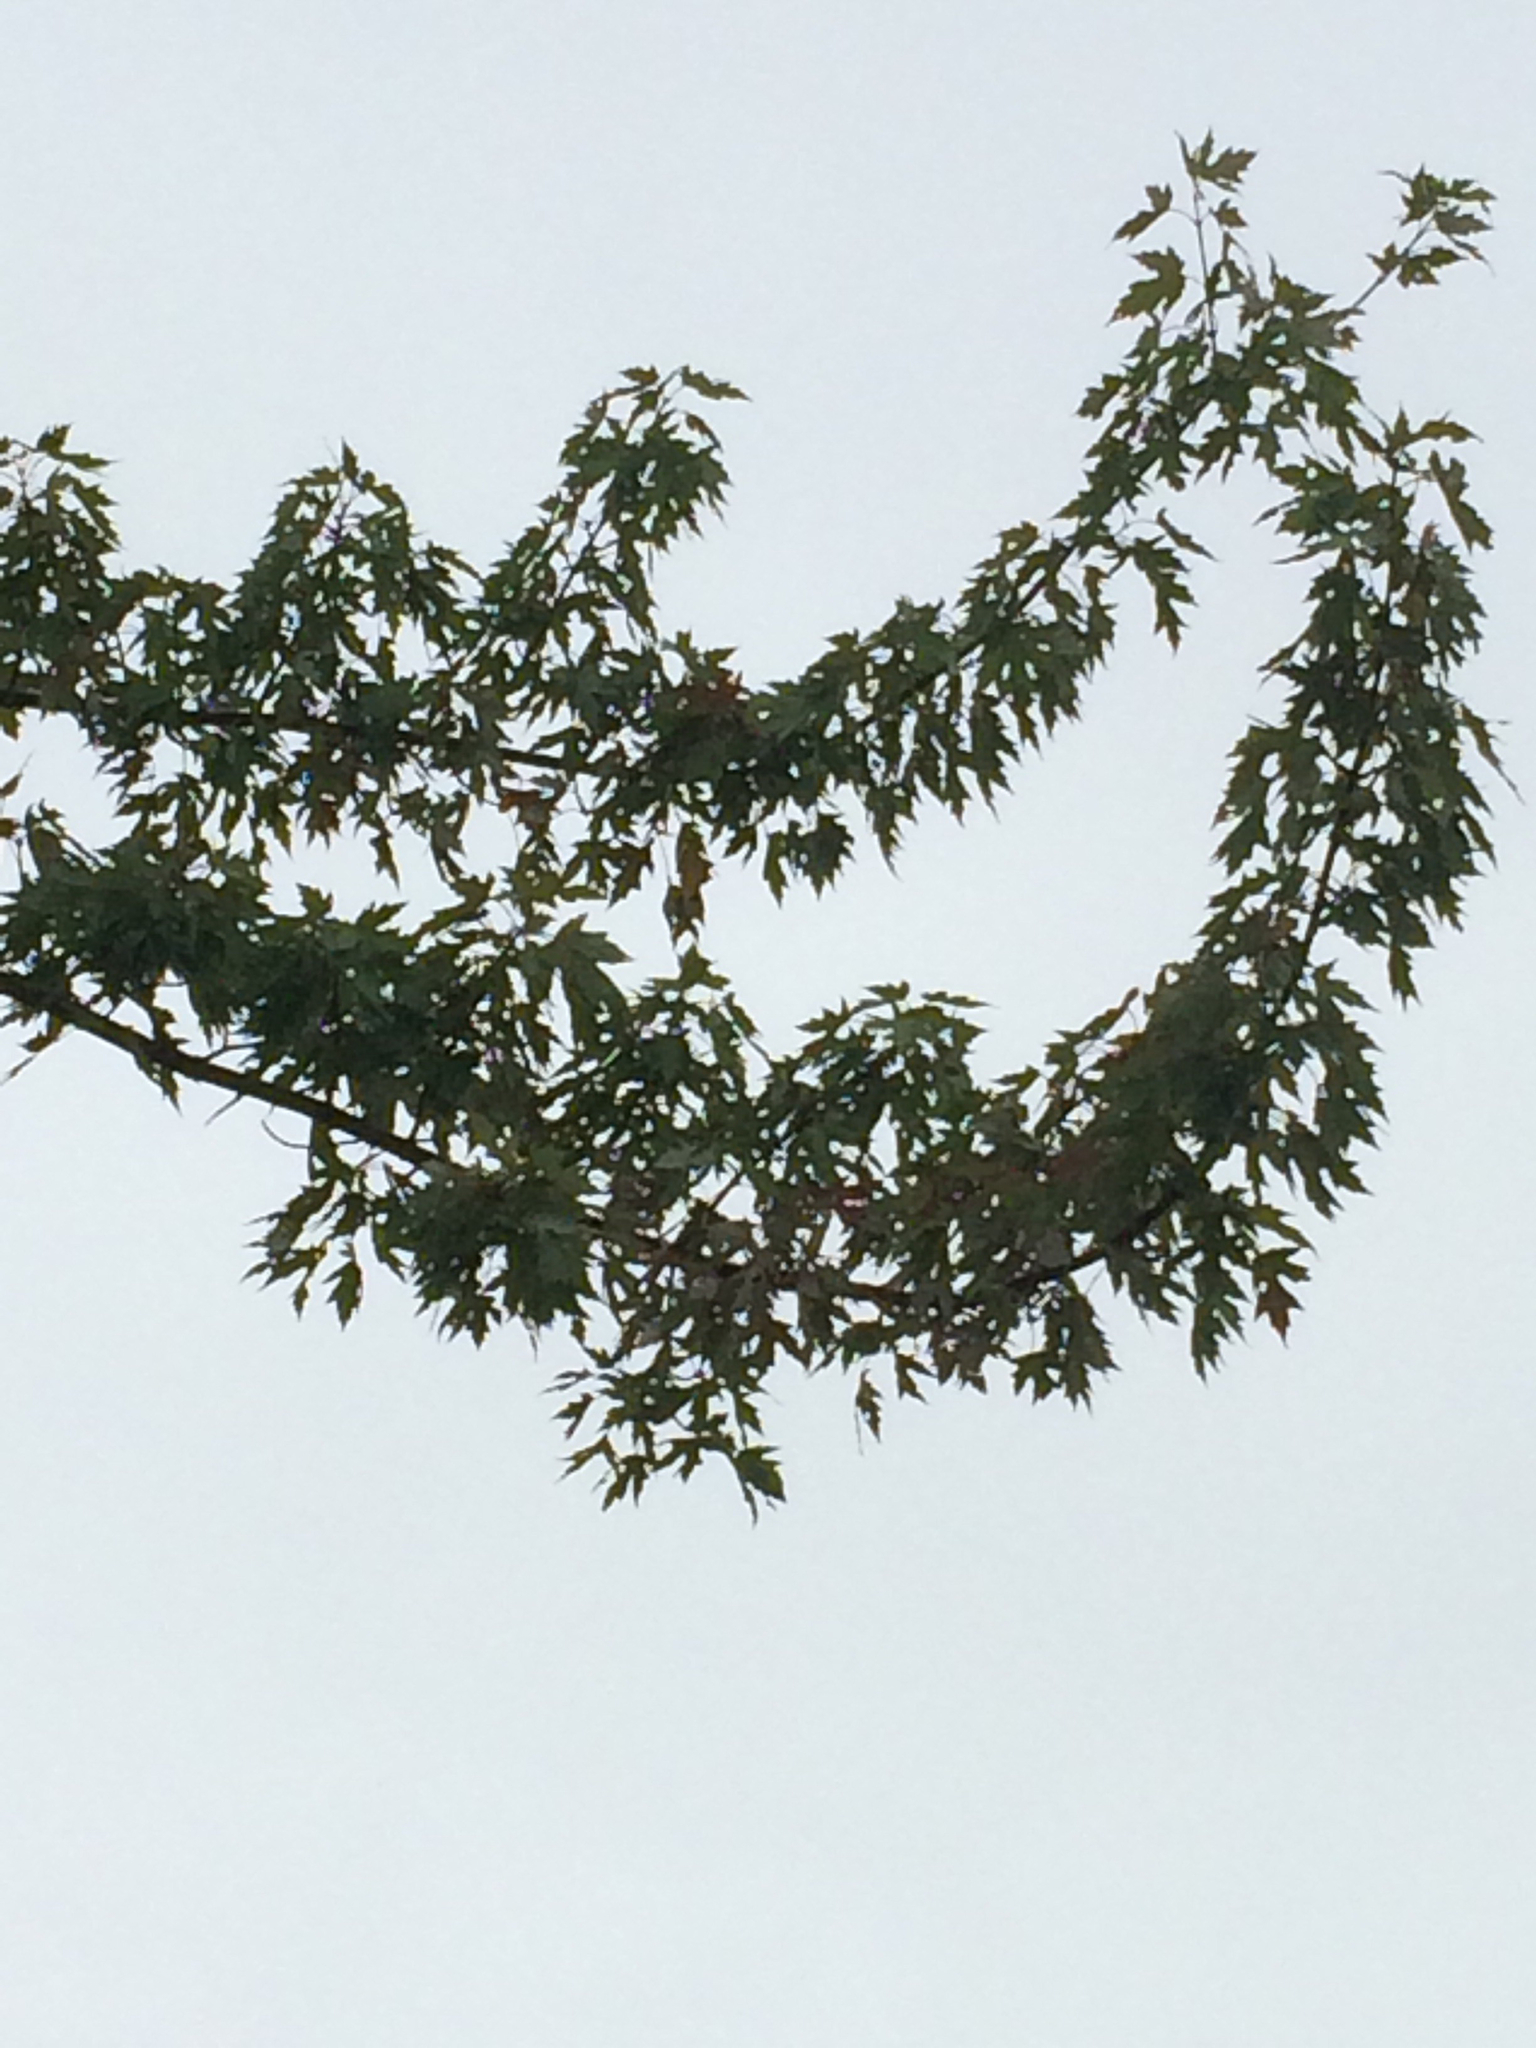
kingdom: Plantae
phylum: Tracheophyta
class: Magnoliopsida
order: Sapindales
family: Sapindaceae
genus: Acer
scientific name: Acer saccharinum
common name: Silver maple
